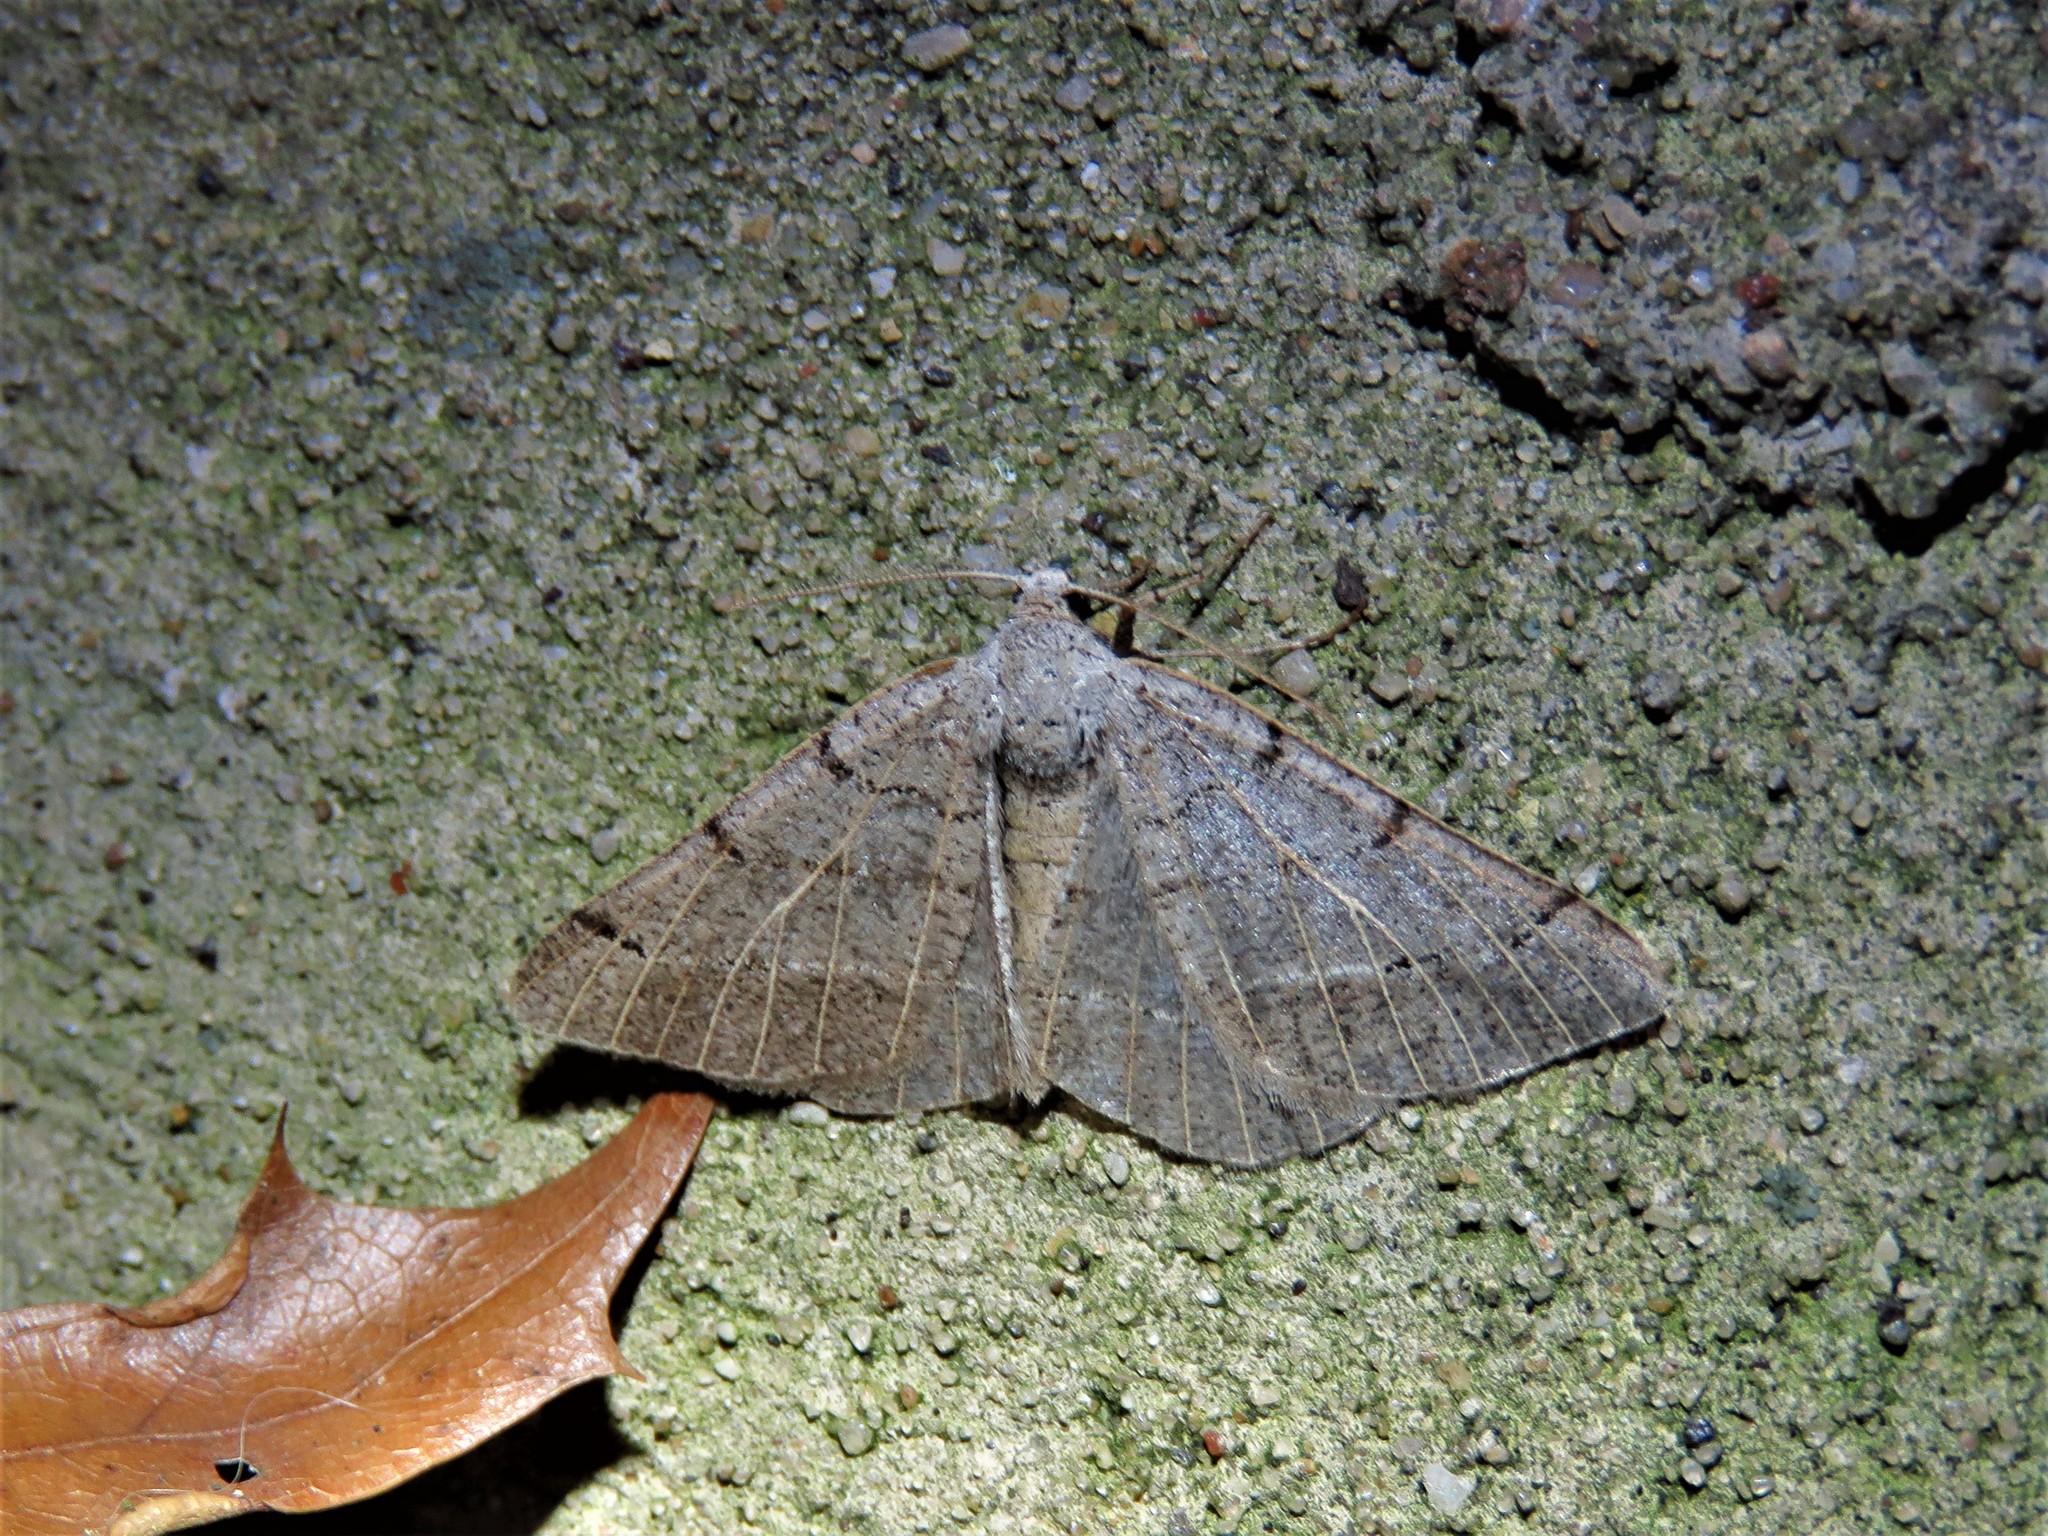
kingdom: Animalia
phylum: Arthropoda
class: Insecta
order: Lepidoptera
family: Geometridae
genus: Isturgia
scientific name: Isturgia dislocaria
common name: Pale-viened enconista
